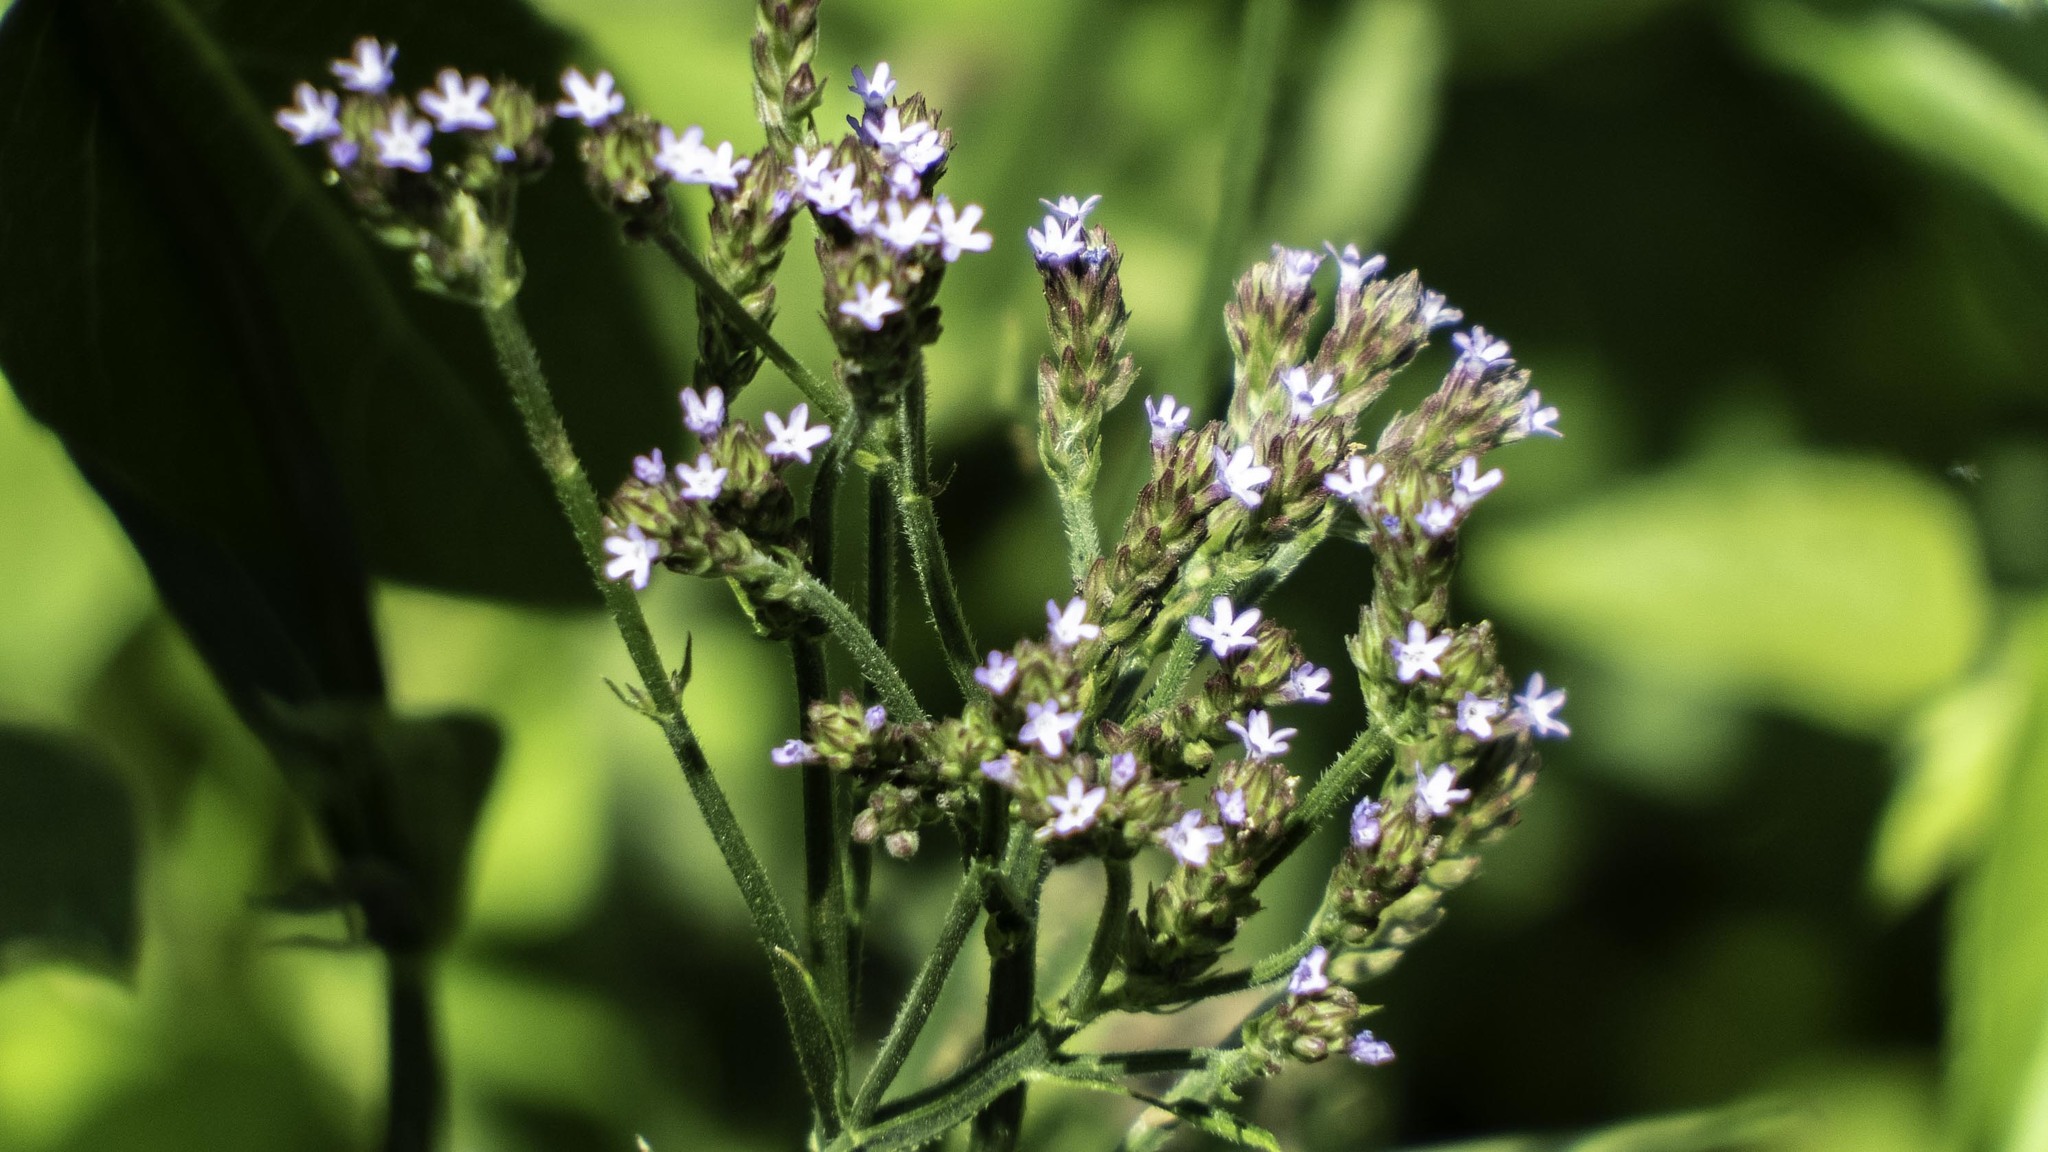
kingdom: Plantae
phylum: Tracheophyta
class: Magnoliopsida
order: Lamiales
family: Verbenaceae
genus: Verbena
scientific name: Verbena brasiliensis
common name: Brazilian vervain
